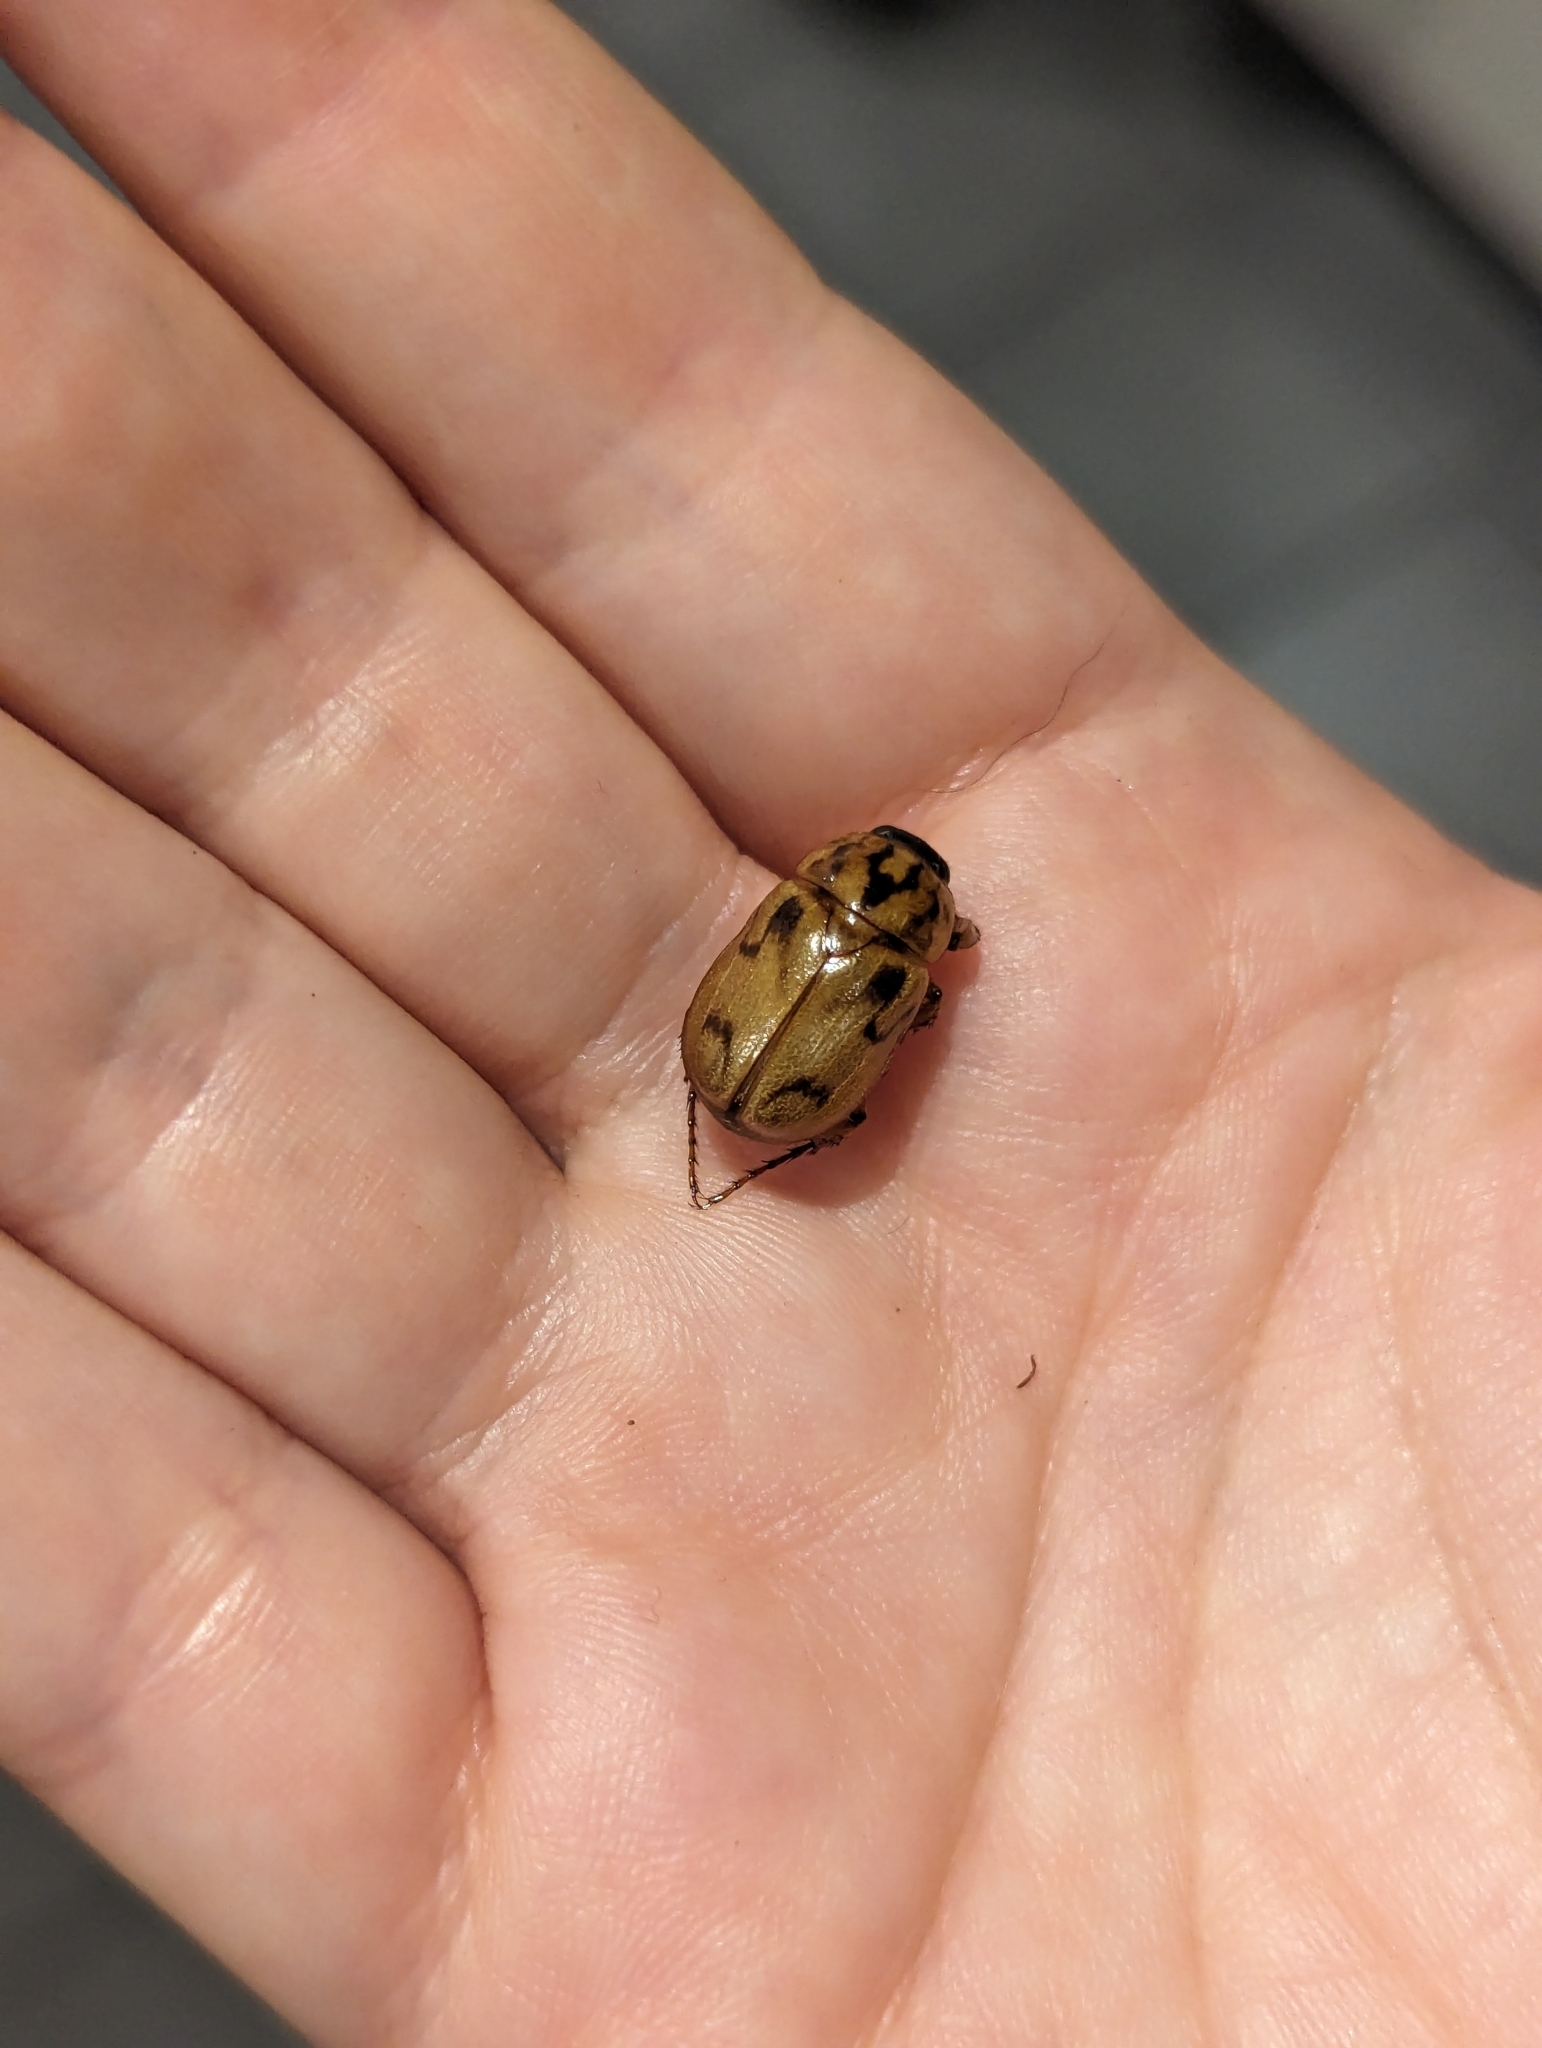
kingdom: Animalia
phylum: Arthropoda
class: Insecta
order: Coleoptera
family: Scarabaeidae
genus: Cyclocephala
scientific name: Cyclocephala signaticollis
